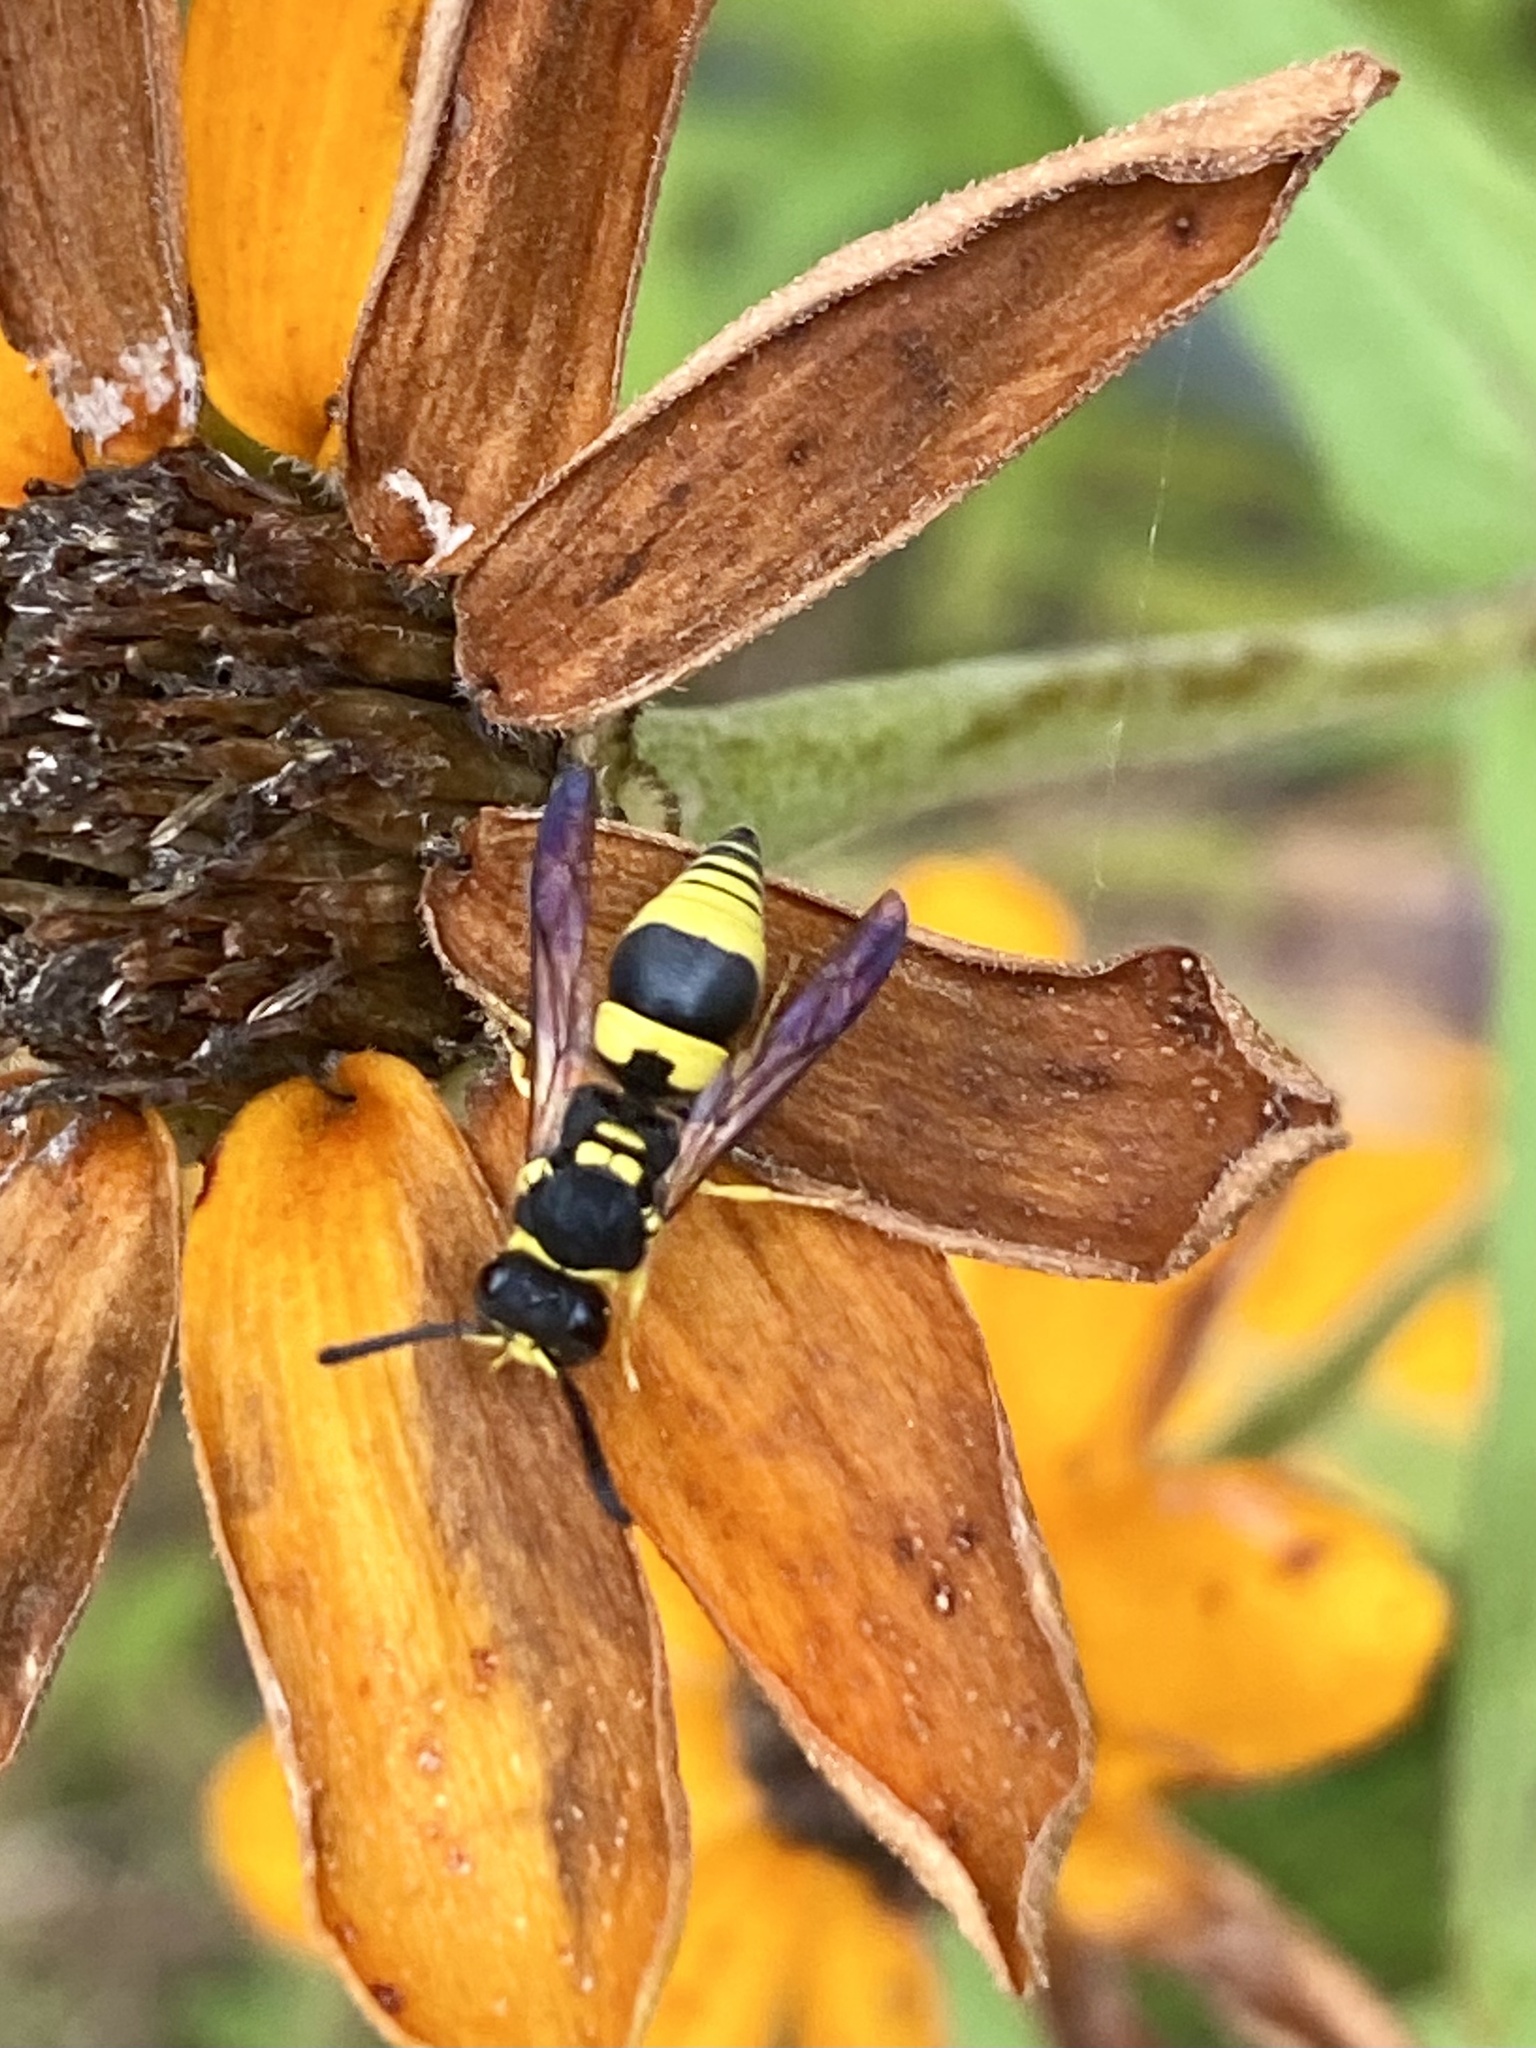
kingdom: Animalia
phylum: Arthropoda
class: Insecta
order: Hymenoptera
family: Vespidae
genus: Ancistrocerus
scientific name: Ancistrocerus gazella
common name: European tube wasp
